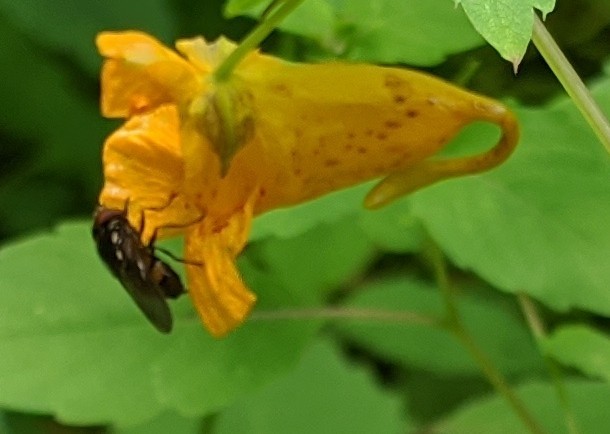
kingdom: Animalia
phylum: Arthropoda
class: Insecta
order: Diptera
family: Syrphidae
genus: Rhingia
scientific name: Rhingia nasica
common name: American snout fly
